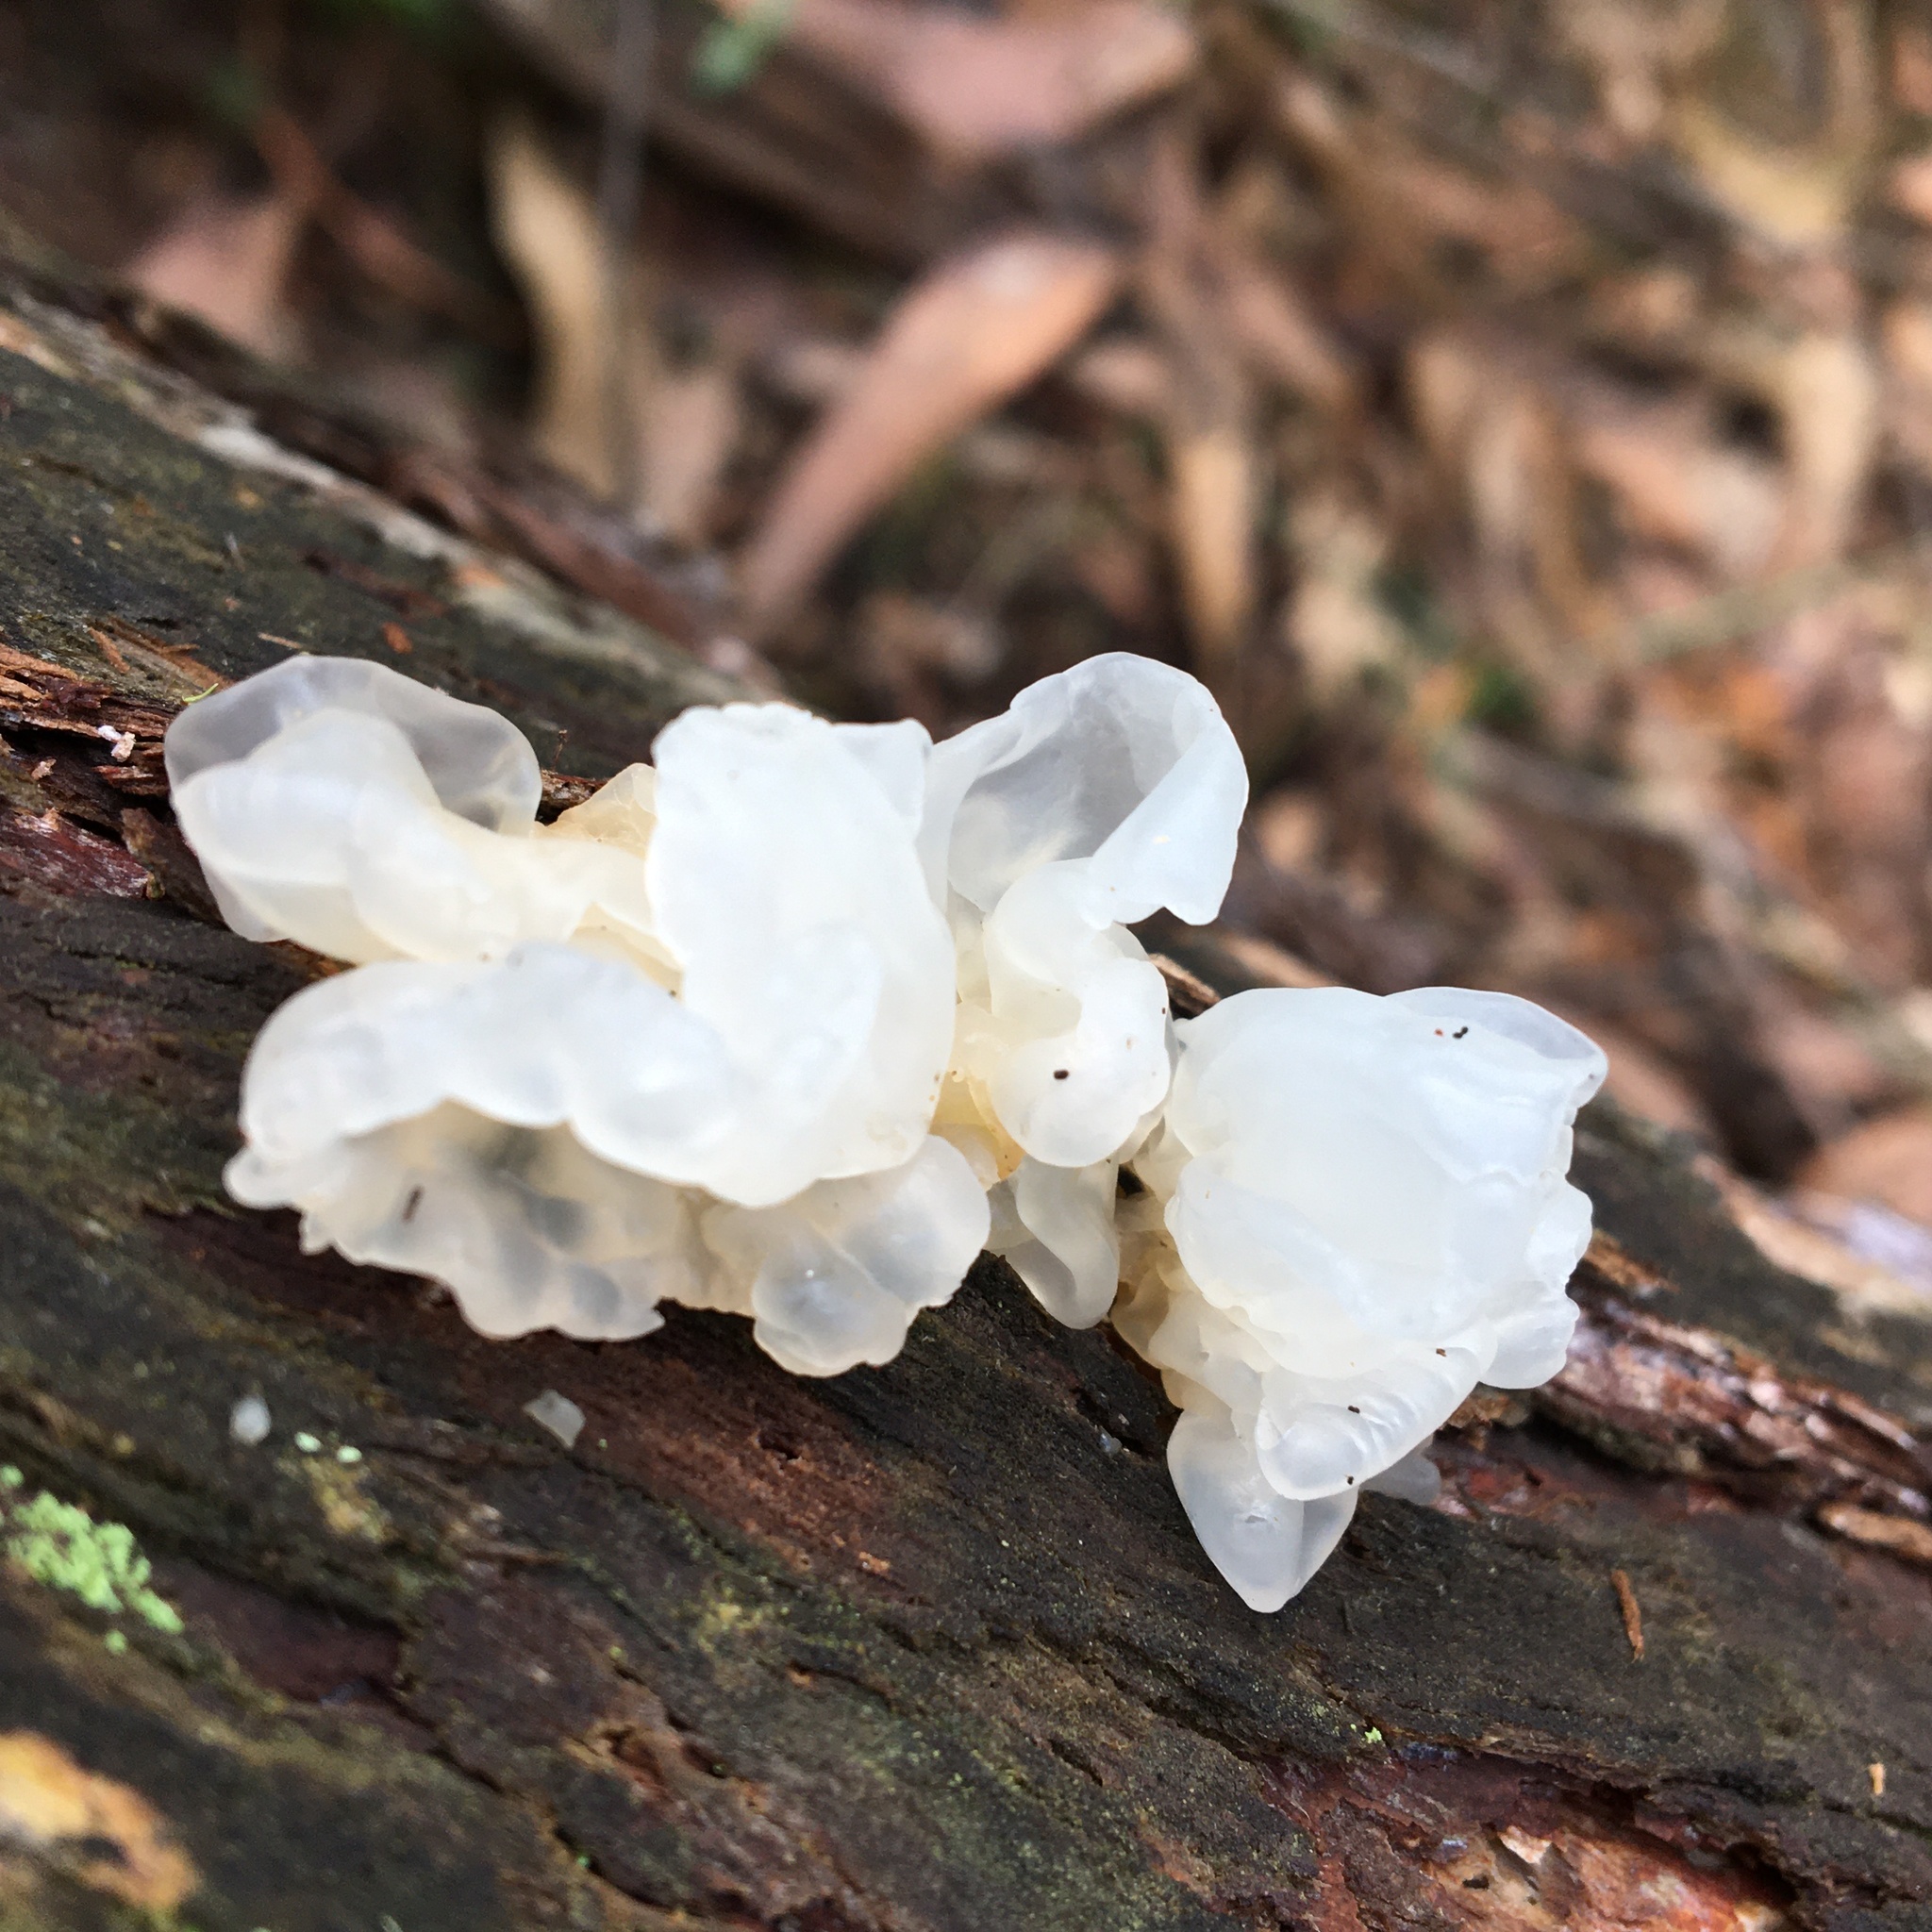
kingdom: Fungi
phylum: Basidiomycota
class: Tremellomycetes
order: Tremellales
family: Tremellaceae
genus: Tremella
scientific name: Tremella fuciformis
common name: Snow fungus
